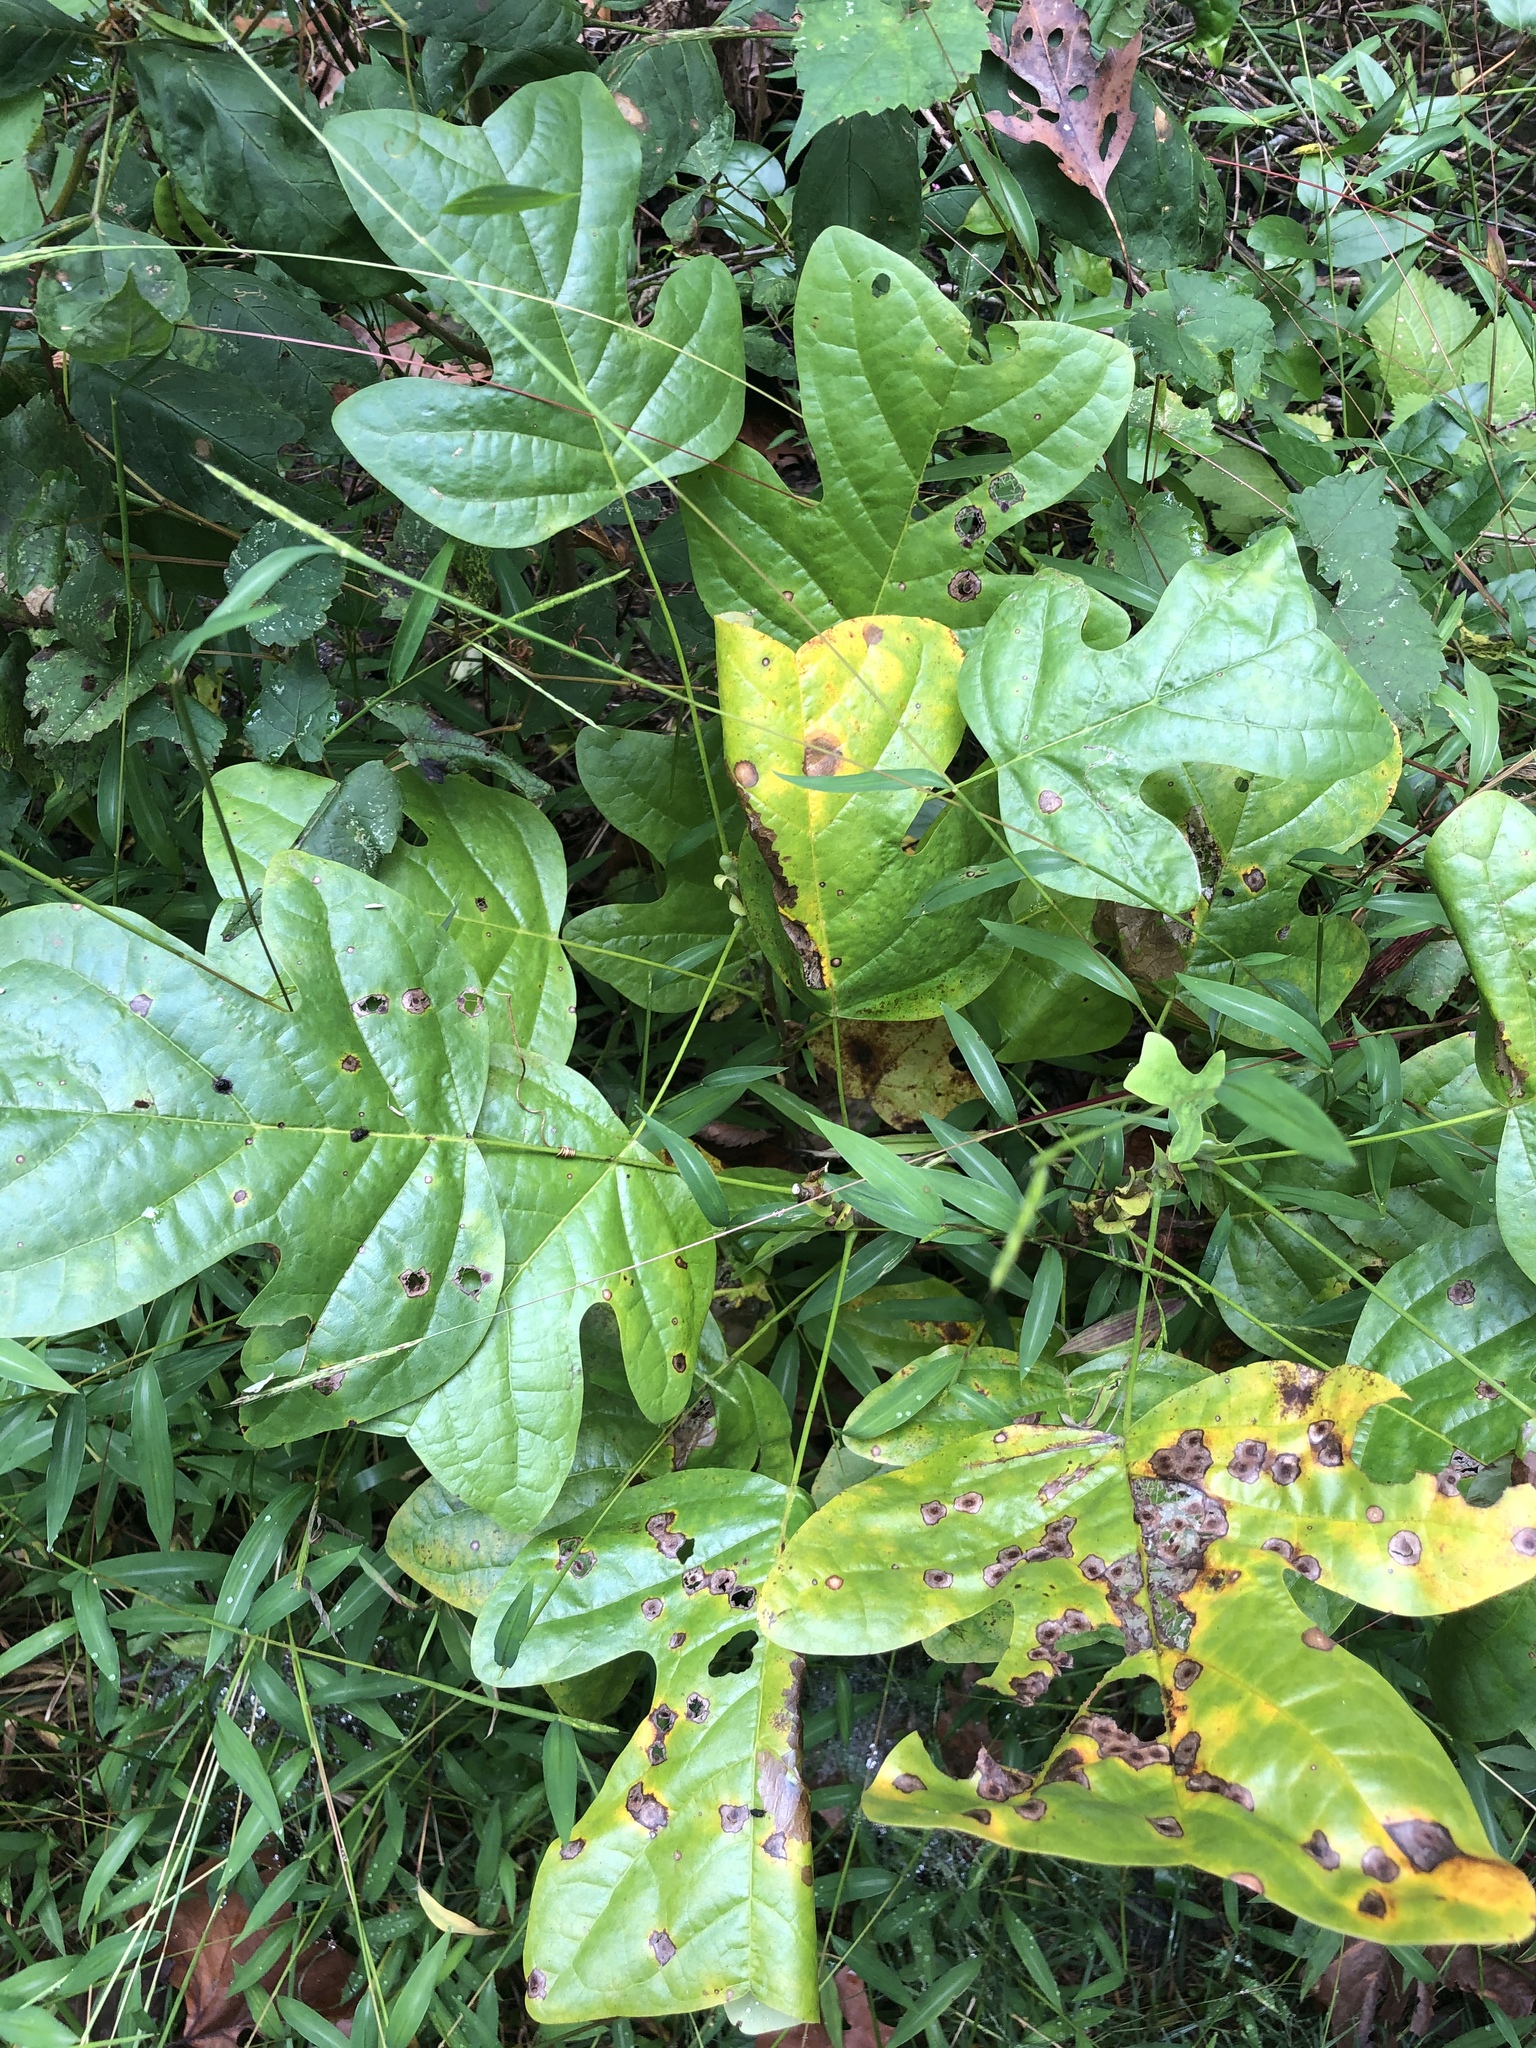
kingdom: Plantae
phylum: Tracheophyta
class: Magnoliopsida
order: Magnoliales
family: Magnoliaceae
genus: Liriodendron
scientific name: Liriodendron tulipifera
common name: Tulip tree
